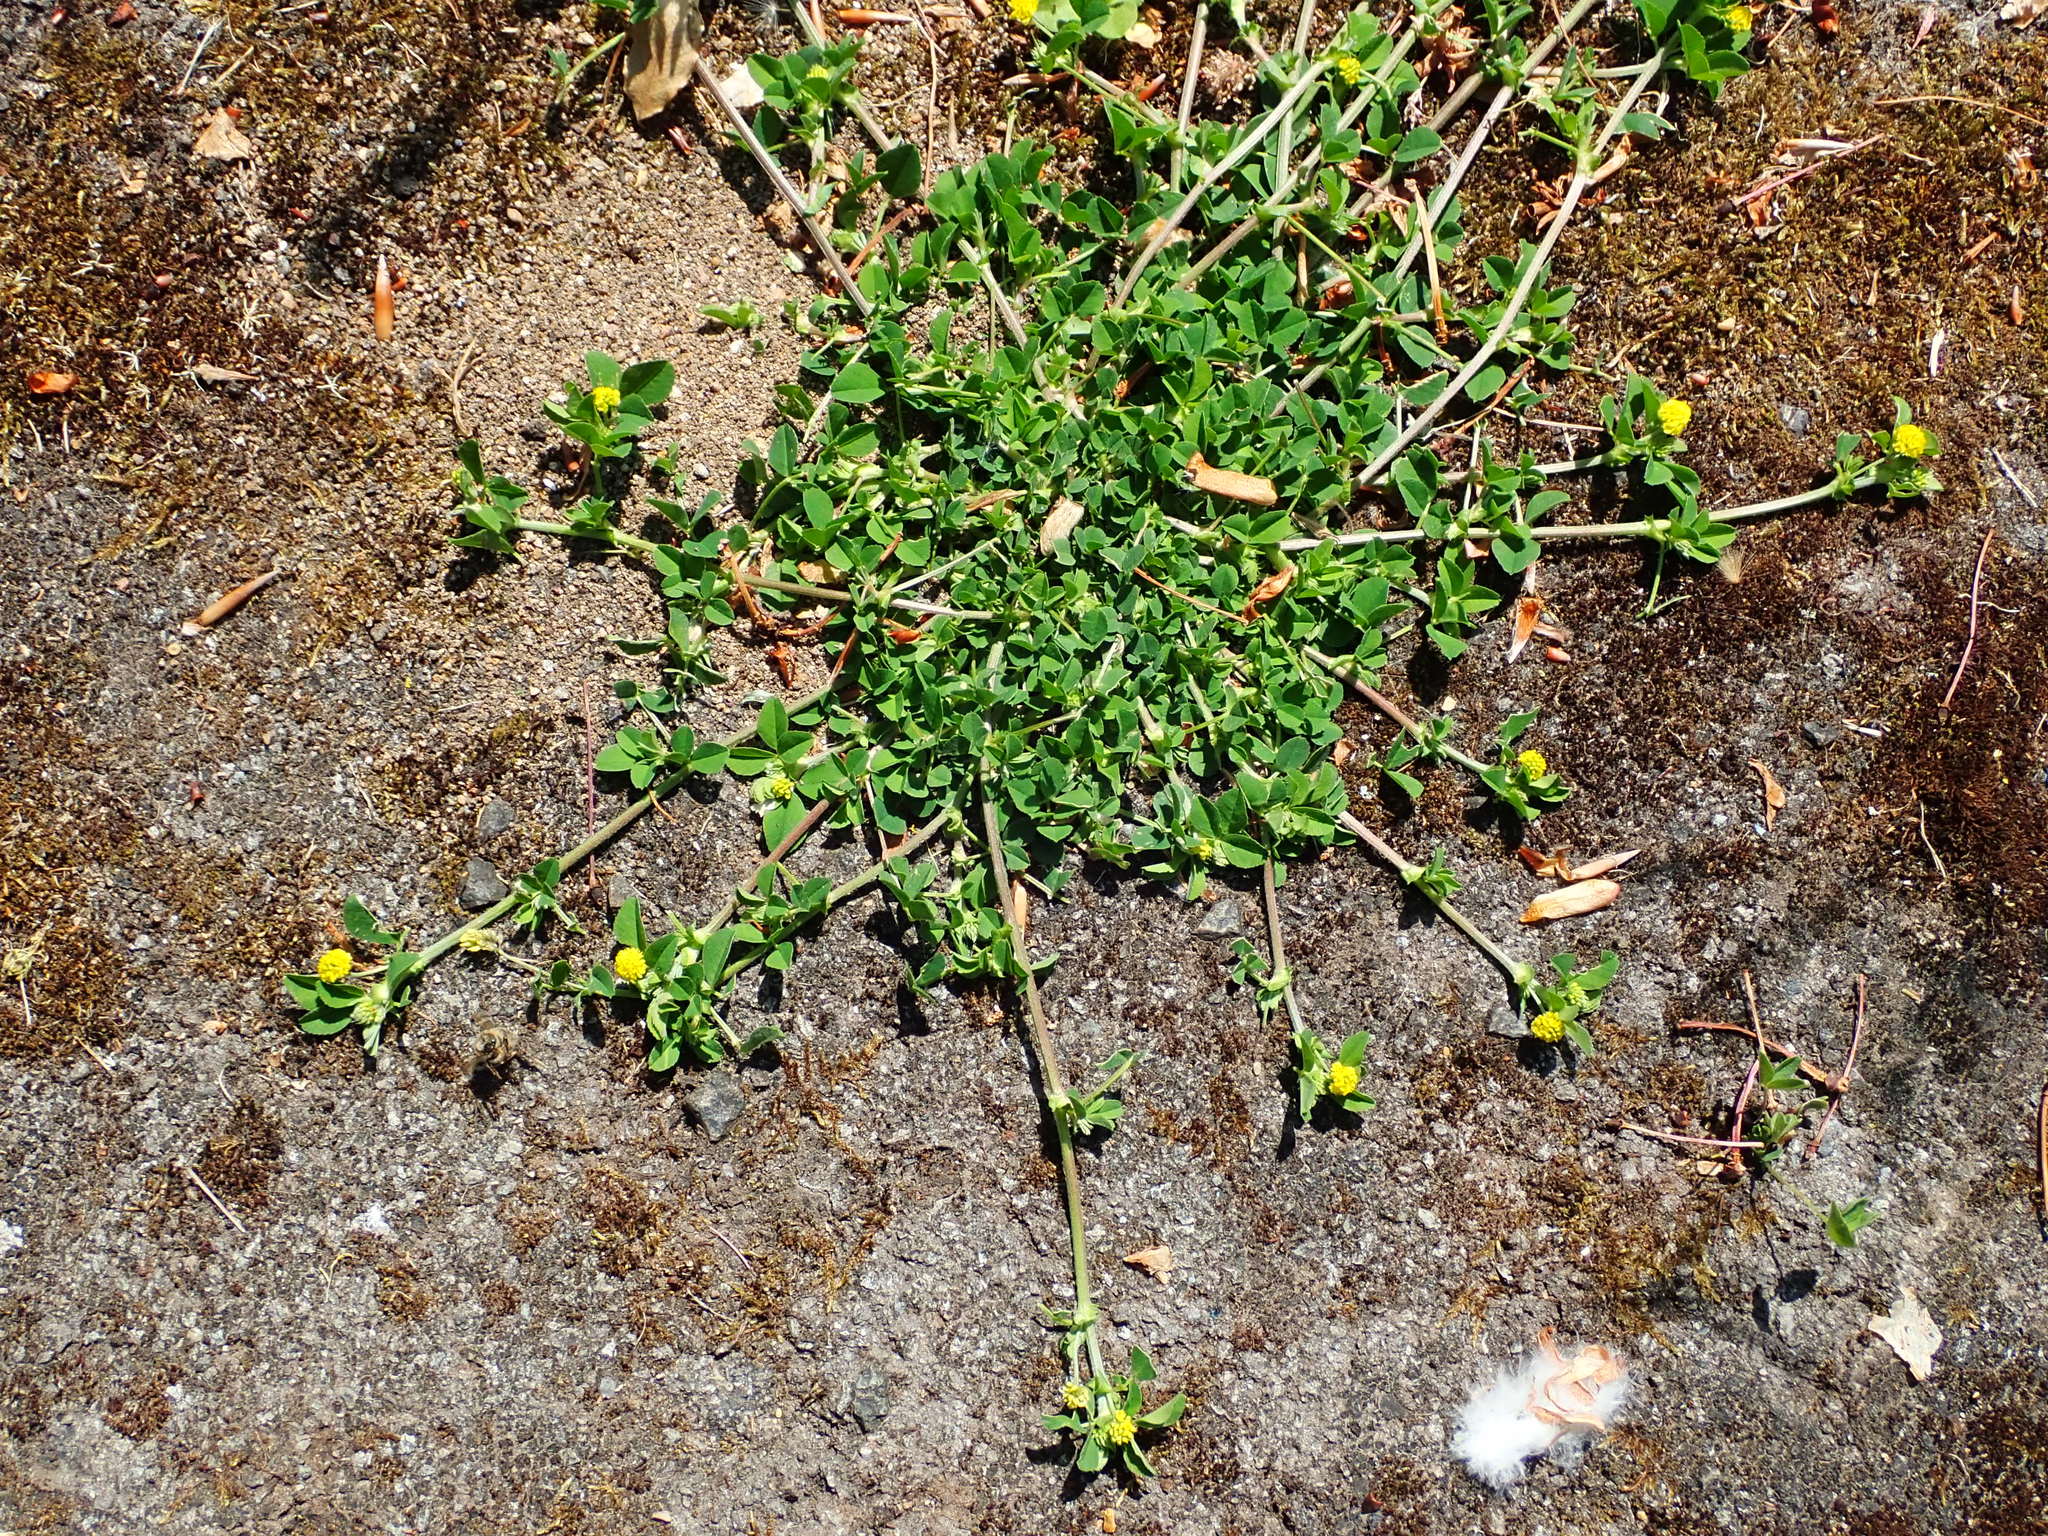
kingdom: Plantae
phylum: Tracheophyta
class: Magnoliopsida
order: Fabales
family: Fabaceae
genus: Medicago
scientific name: Medicago lupulina
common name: Black medick
